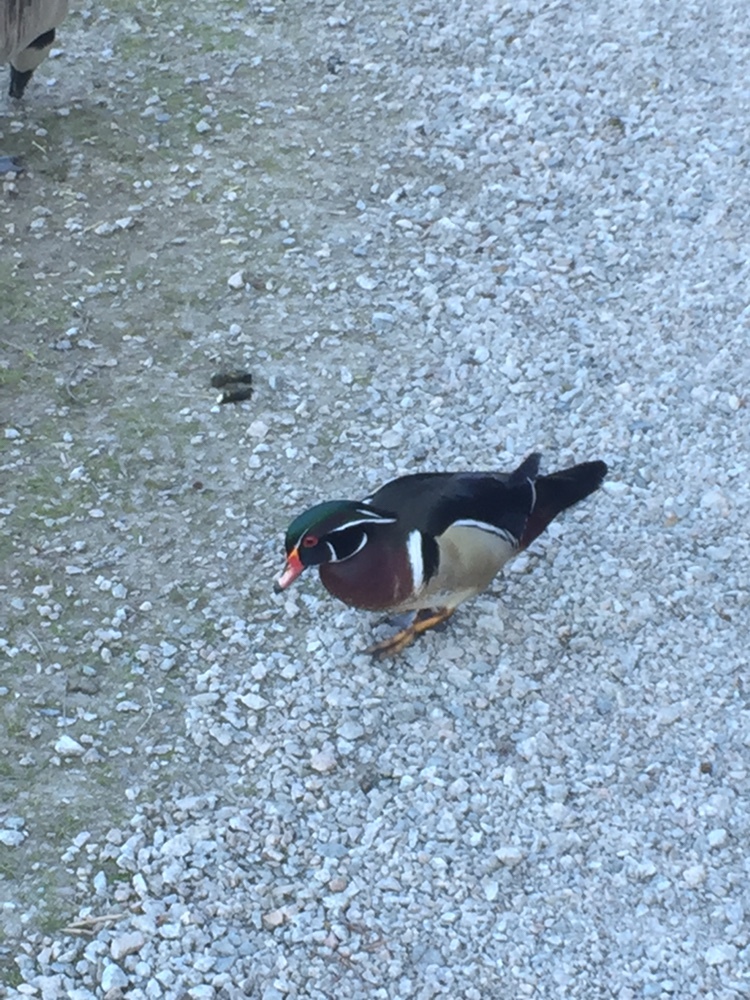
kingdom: Animalia
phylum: Chordata
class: Aves
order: Anseriformes
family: Anatidae
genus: Aix
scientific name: Aix sponsa
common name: Wood duck
